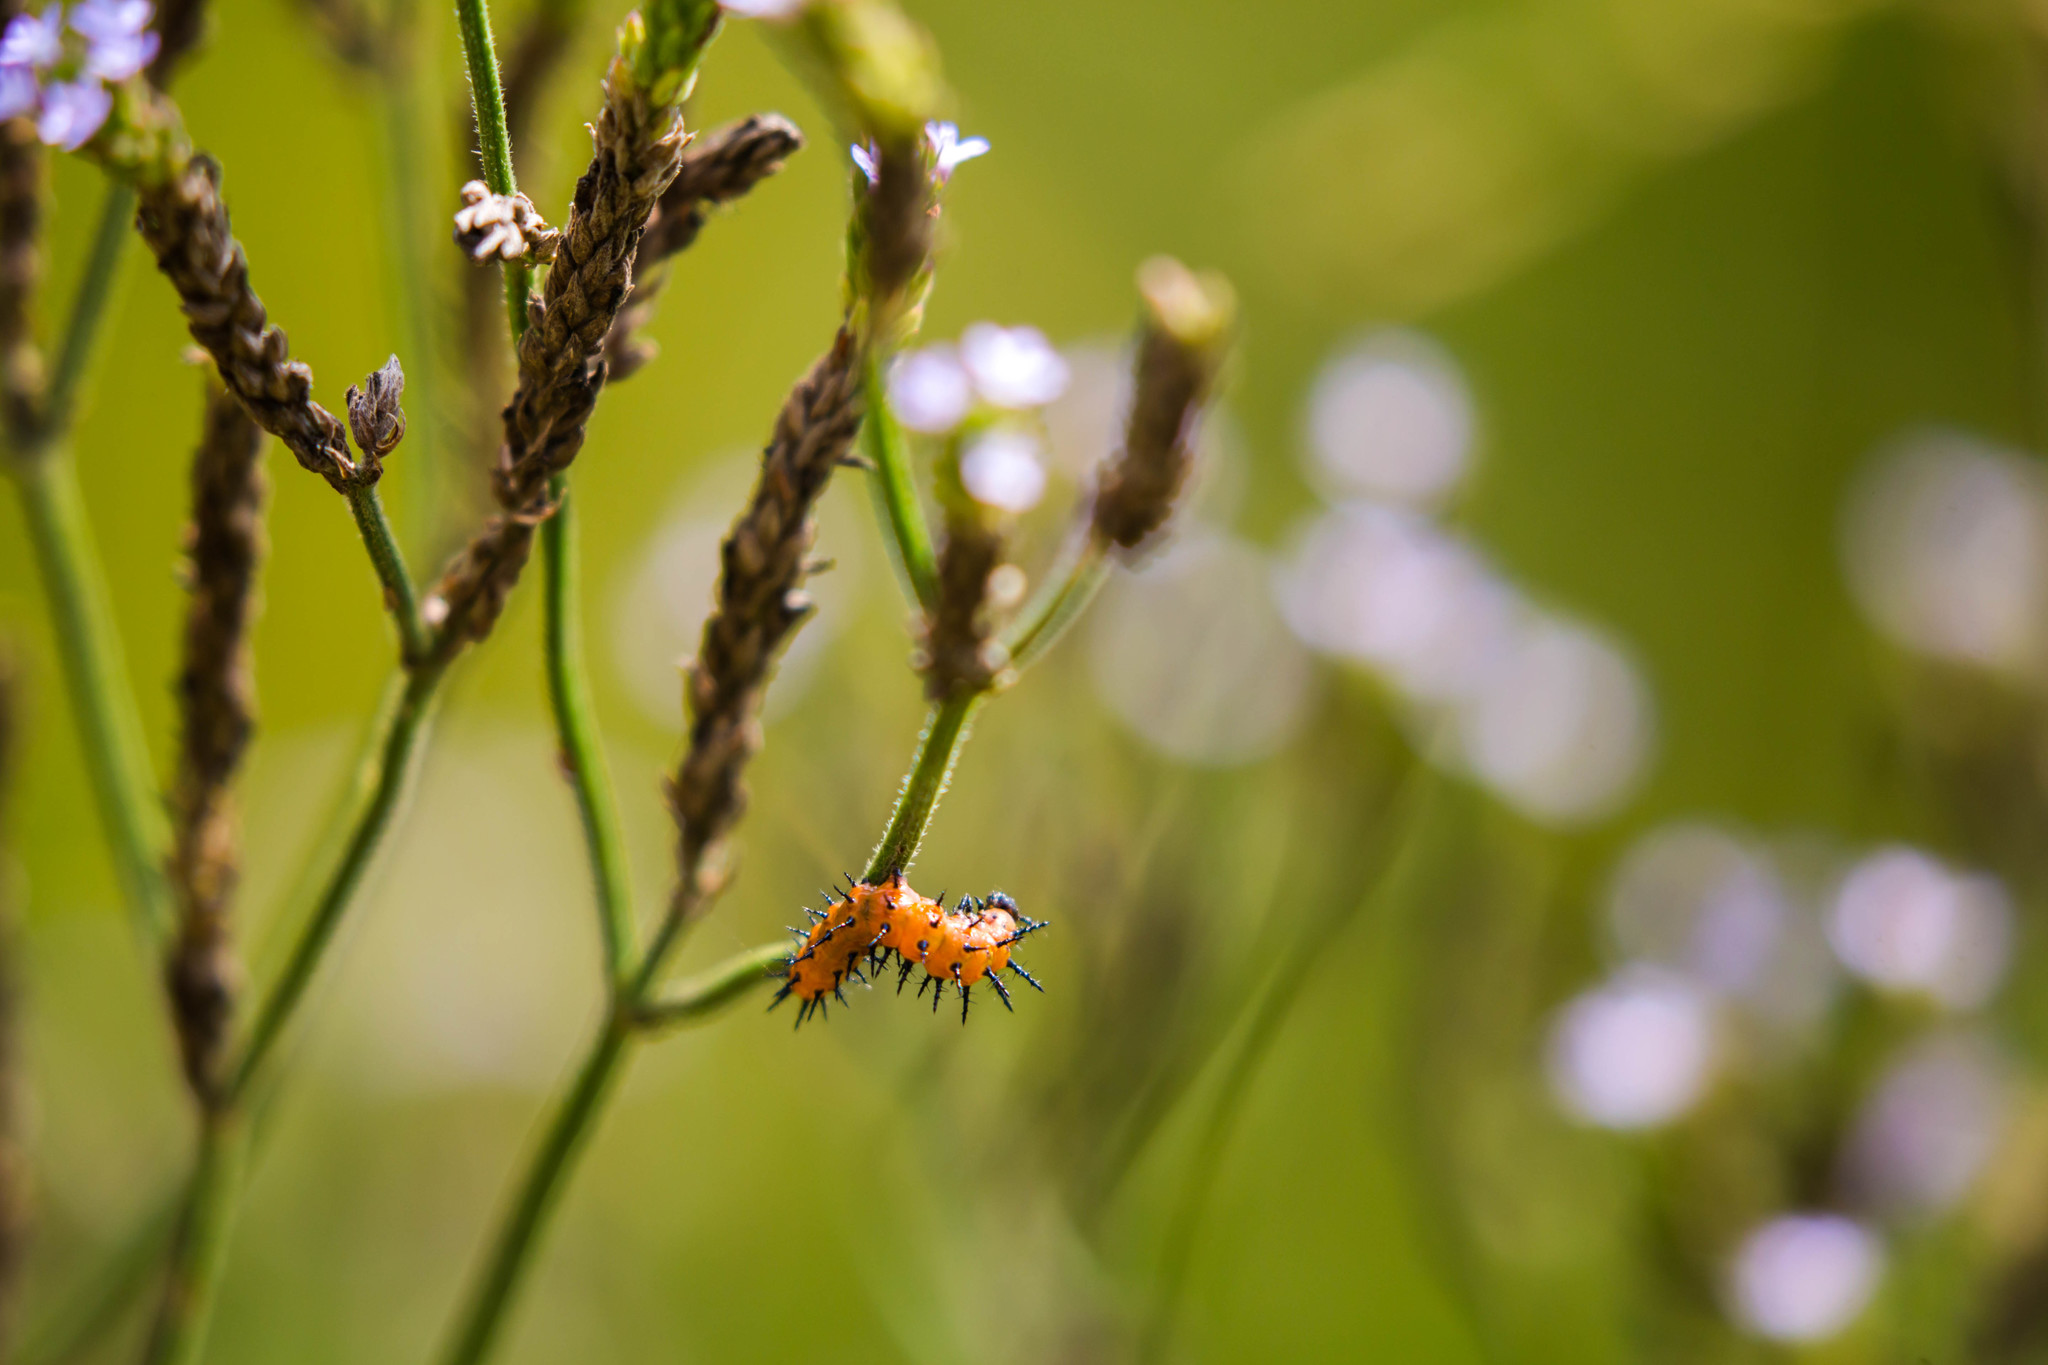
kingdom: Animalia
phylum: Arthropoda
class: Insecta
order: Lepidoptera
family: Nymphalidae
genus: Dione
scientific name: Dione vanillae
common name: Gulf fritillary
